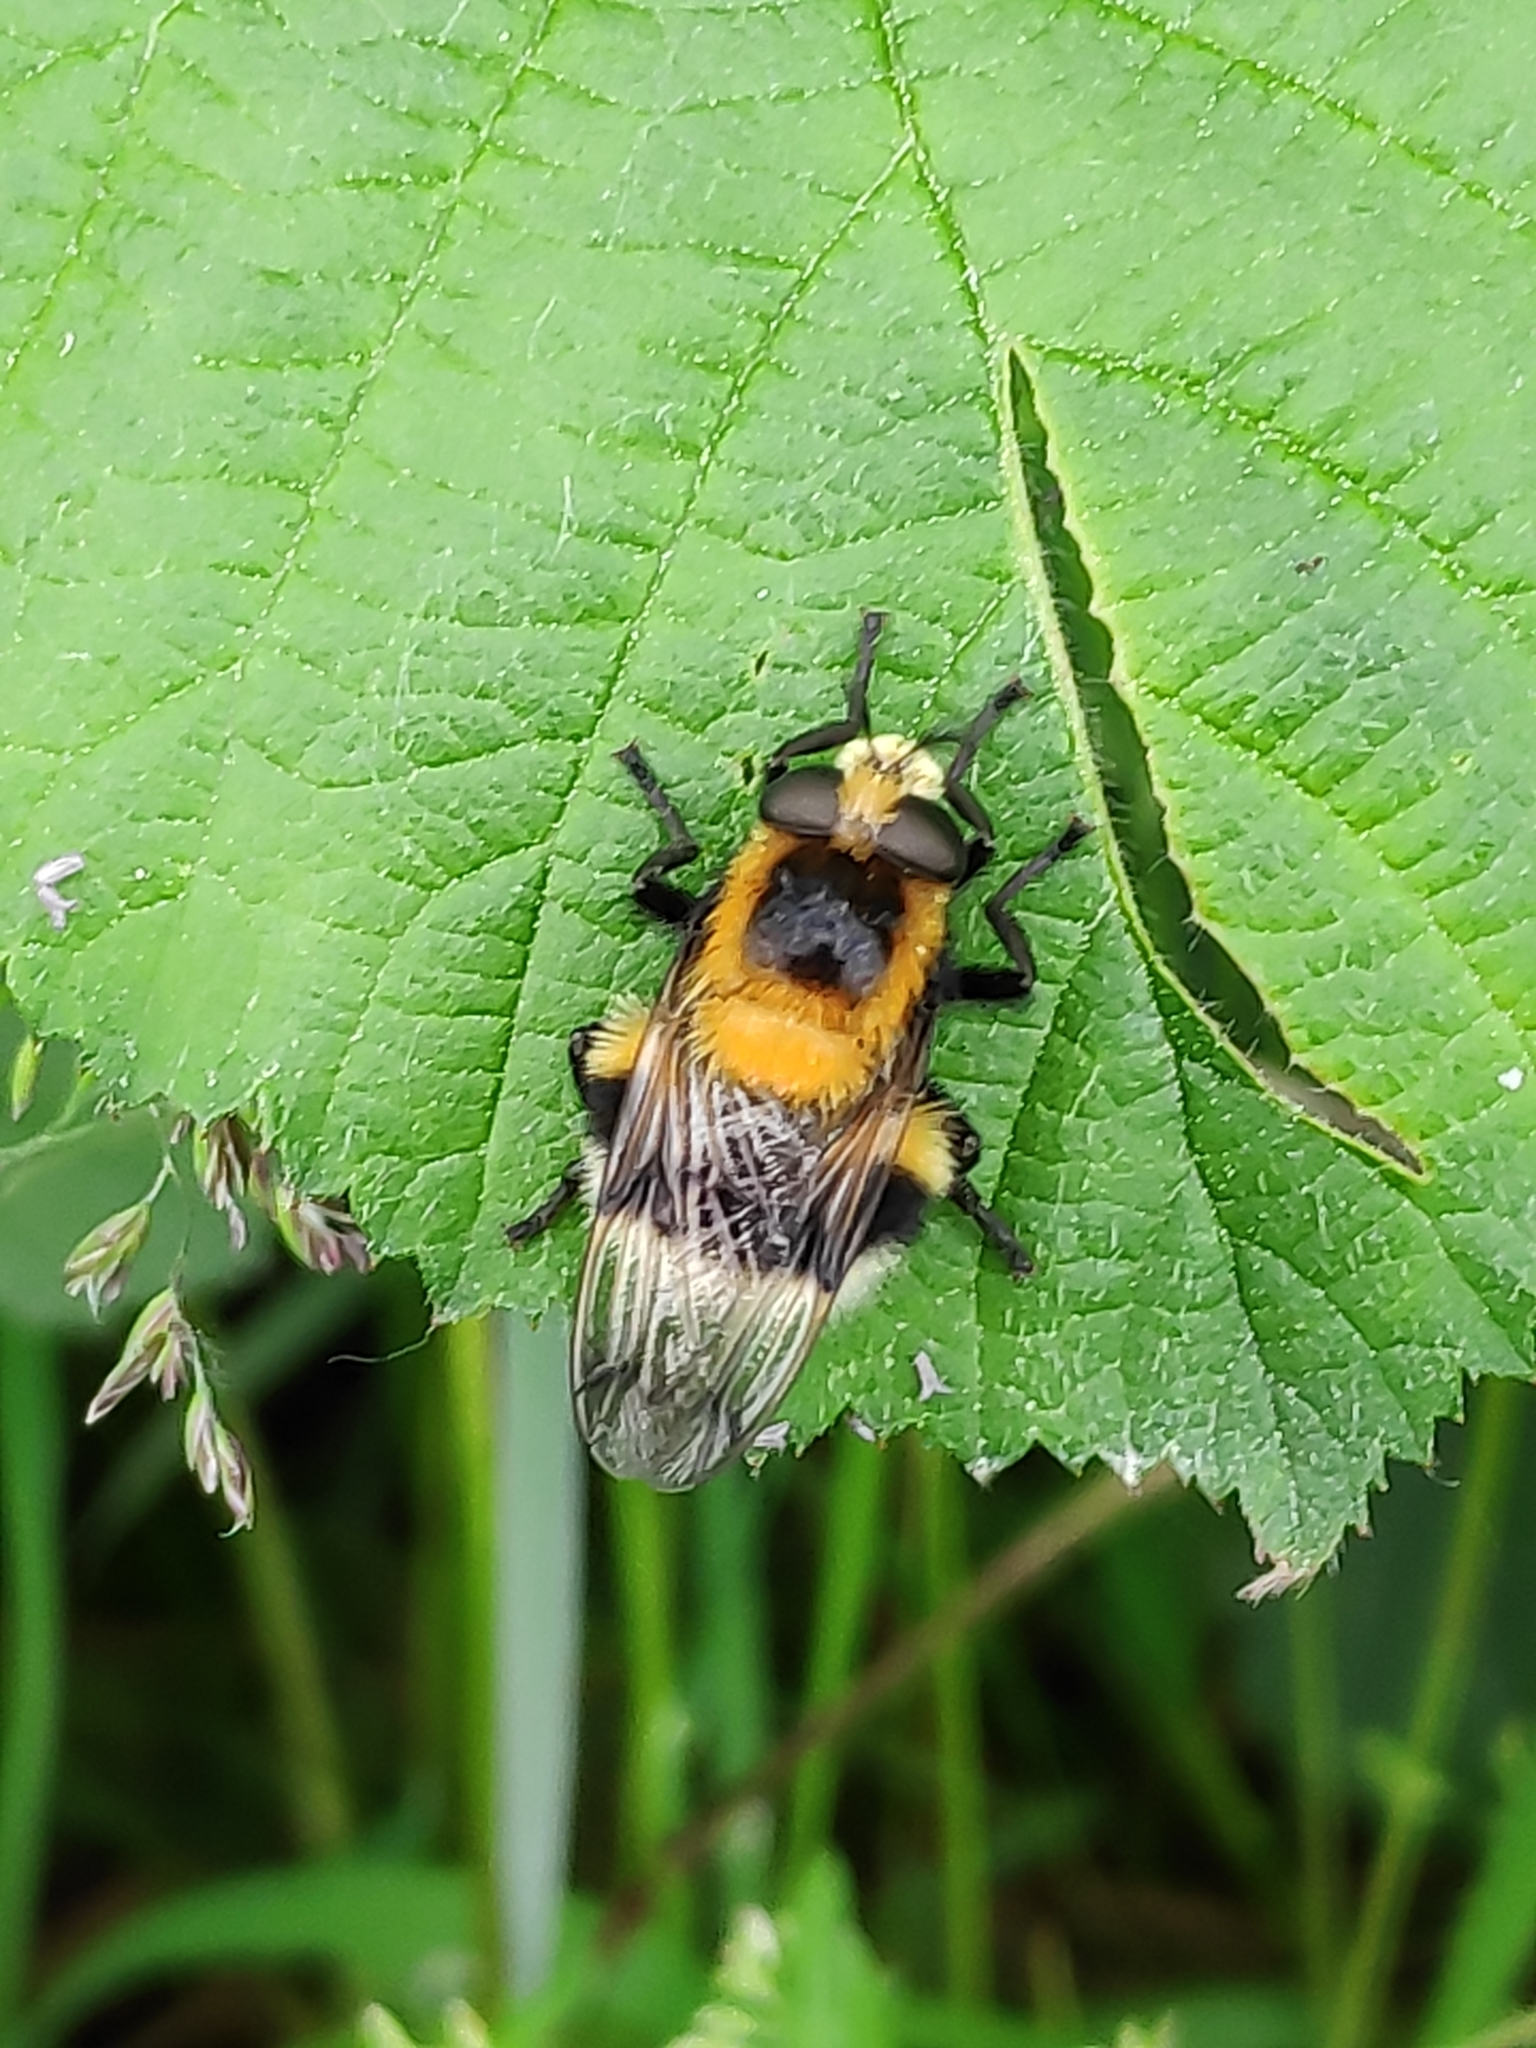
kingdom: Animalia
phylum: Arthropoda
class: Insecta
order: Diptera
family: Syrphidae
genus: Volucella
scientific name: Volucella bombylans
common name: Bumble bee hover fly
